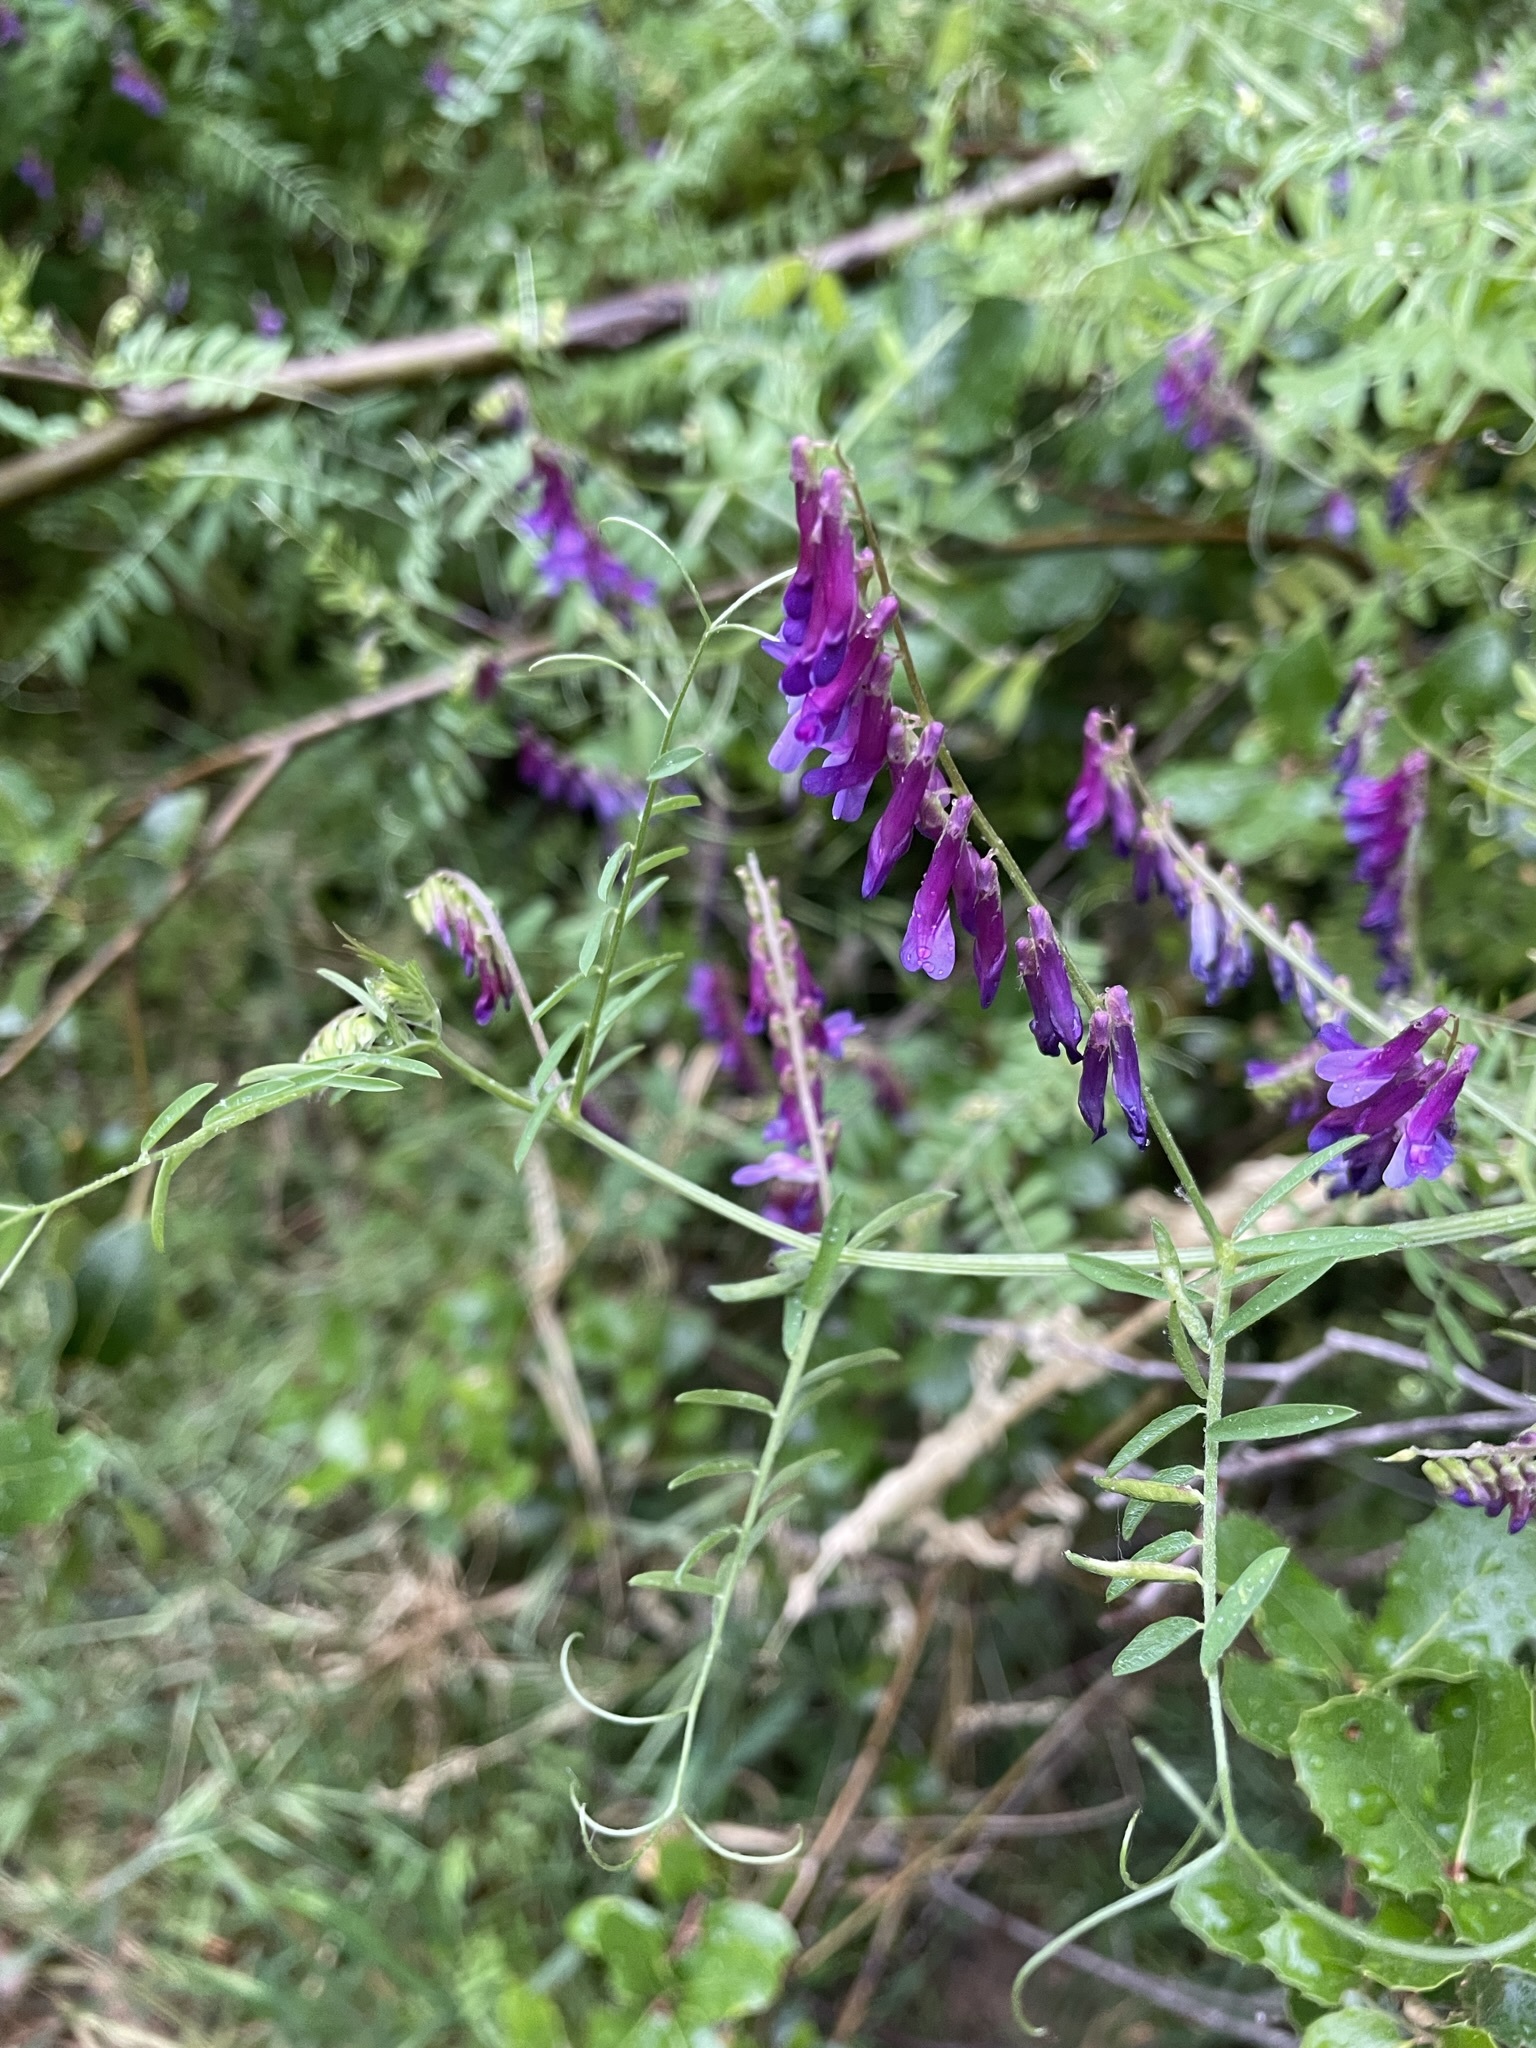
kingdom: Plantae
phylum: Tracheophyta
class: Magnoliopsida
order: Fabales
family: Fabaceae
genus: Vicia
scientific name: Vicia villosa
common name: Fodder vetch
